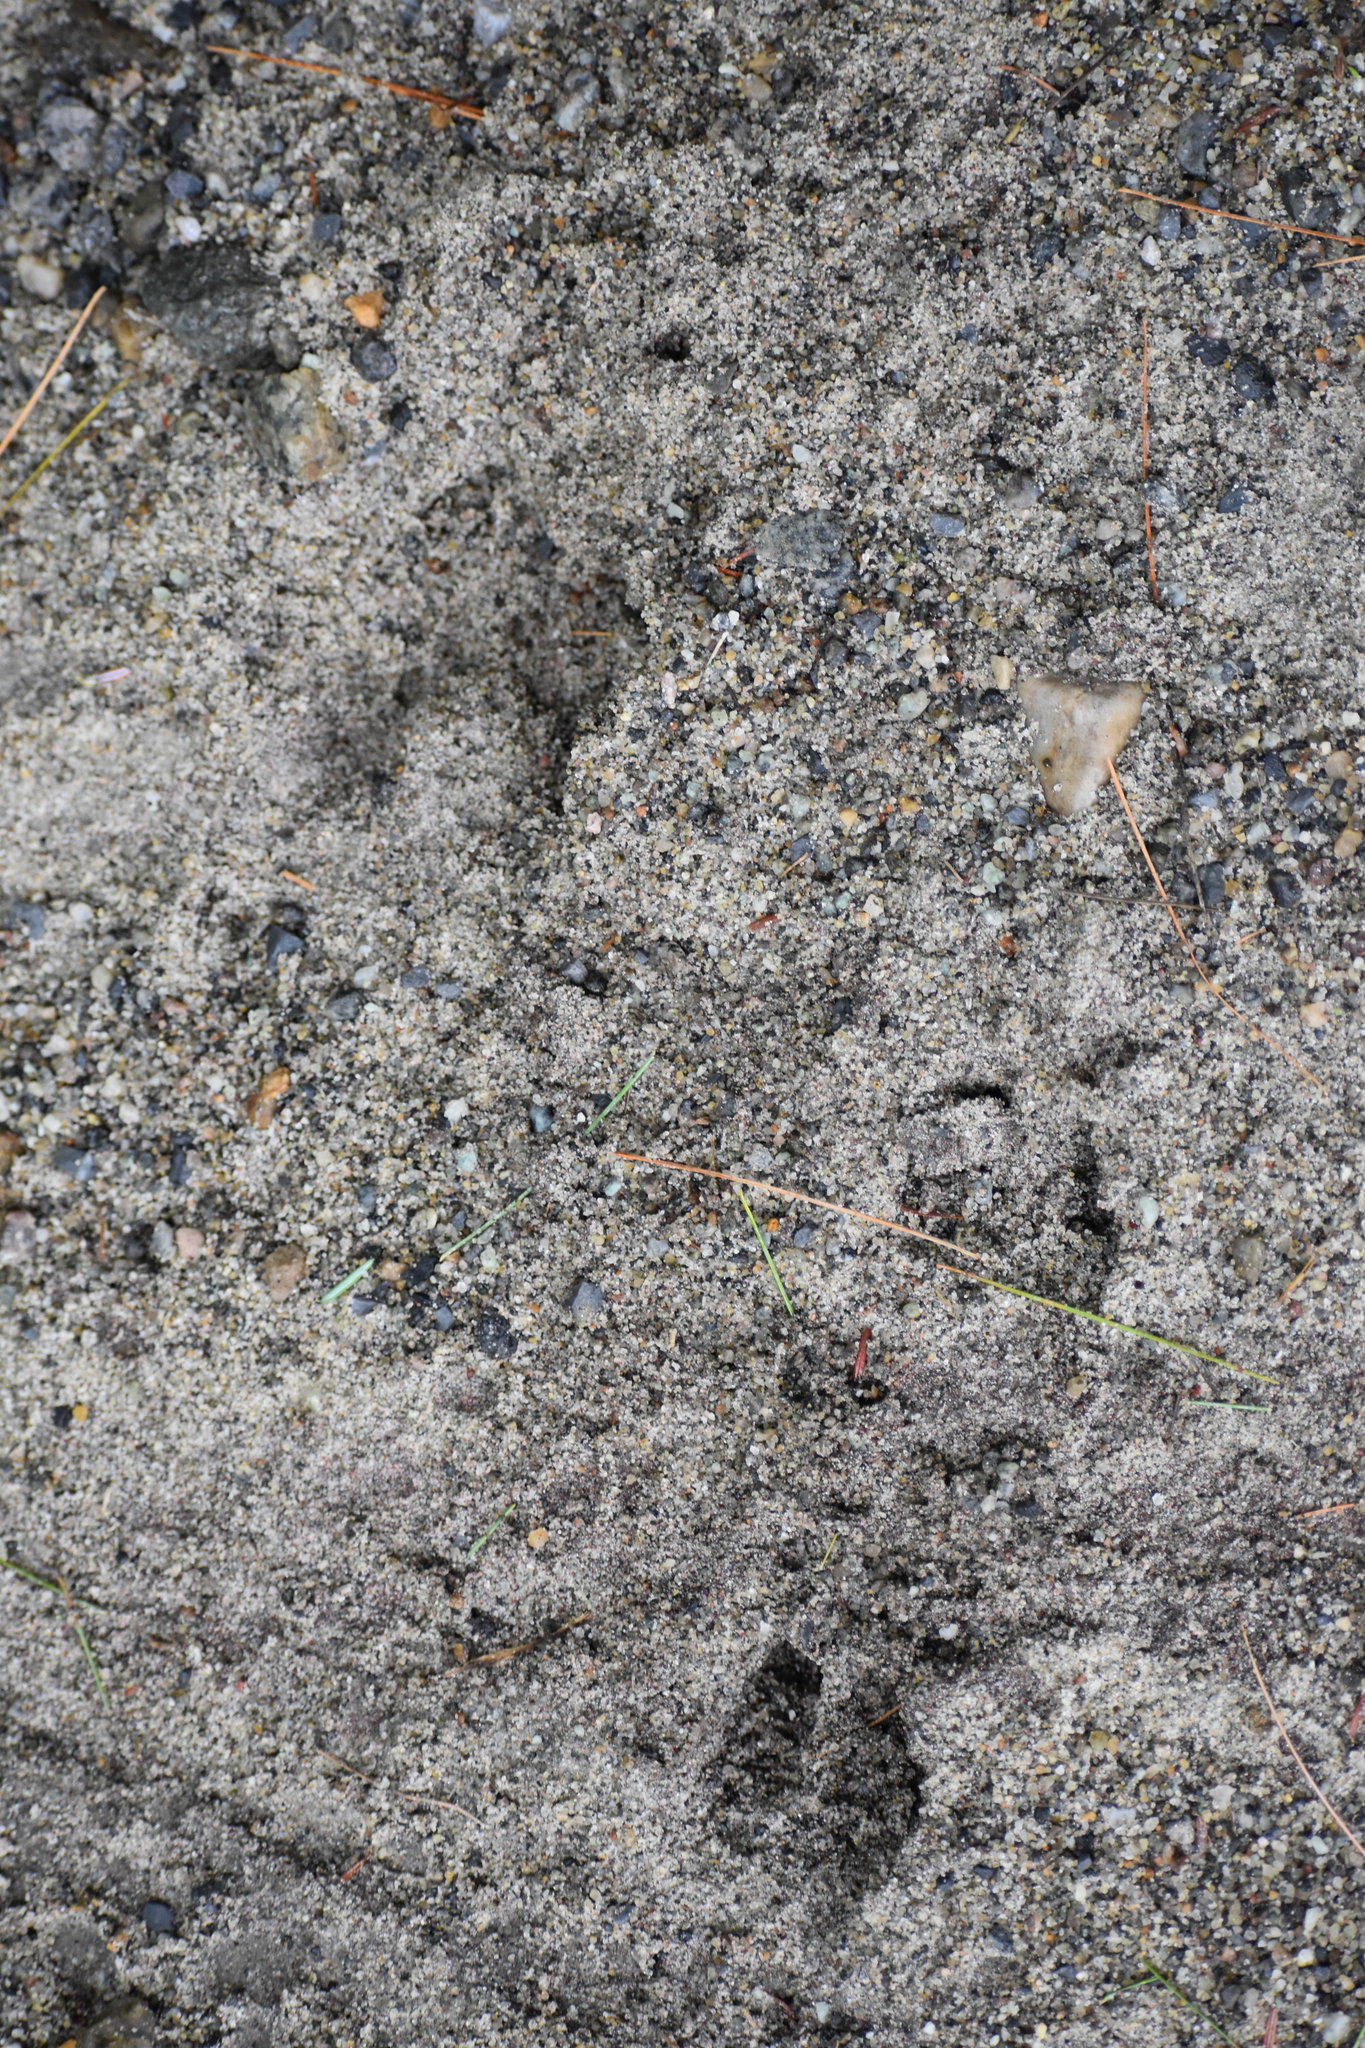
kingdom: Animalia
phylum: Chordata
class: Mammalia
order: Artiodactyla
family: Cervidae
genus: Odocoileus
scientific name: Odocoileus virginianus
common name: White-tailed deer
